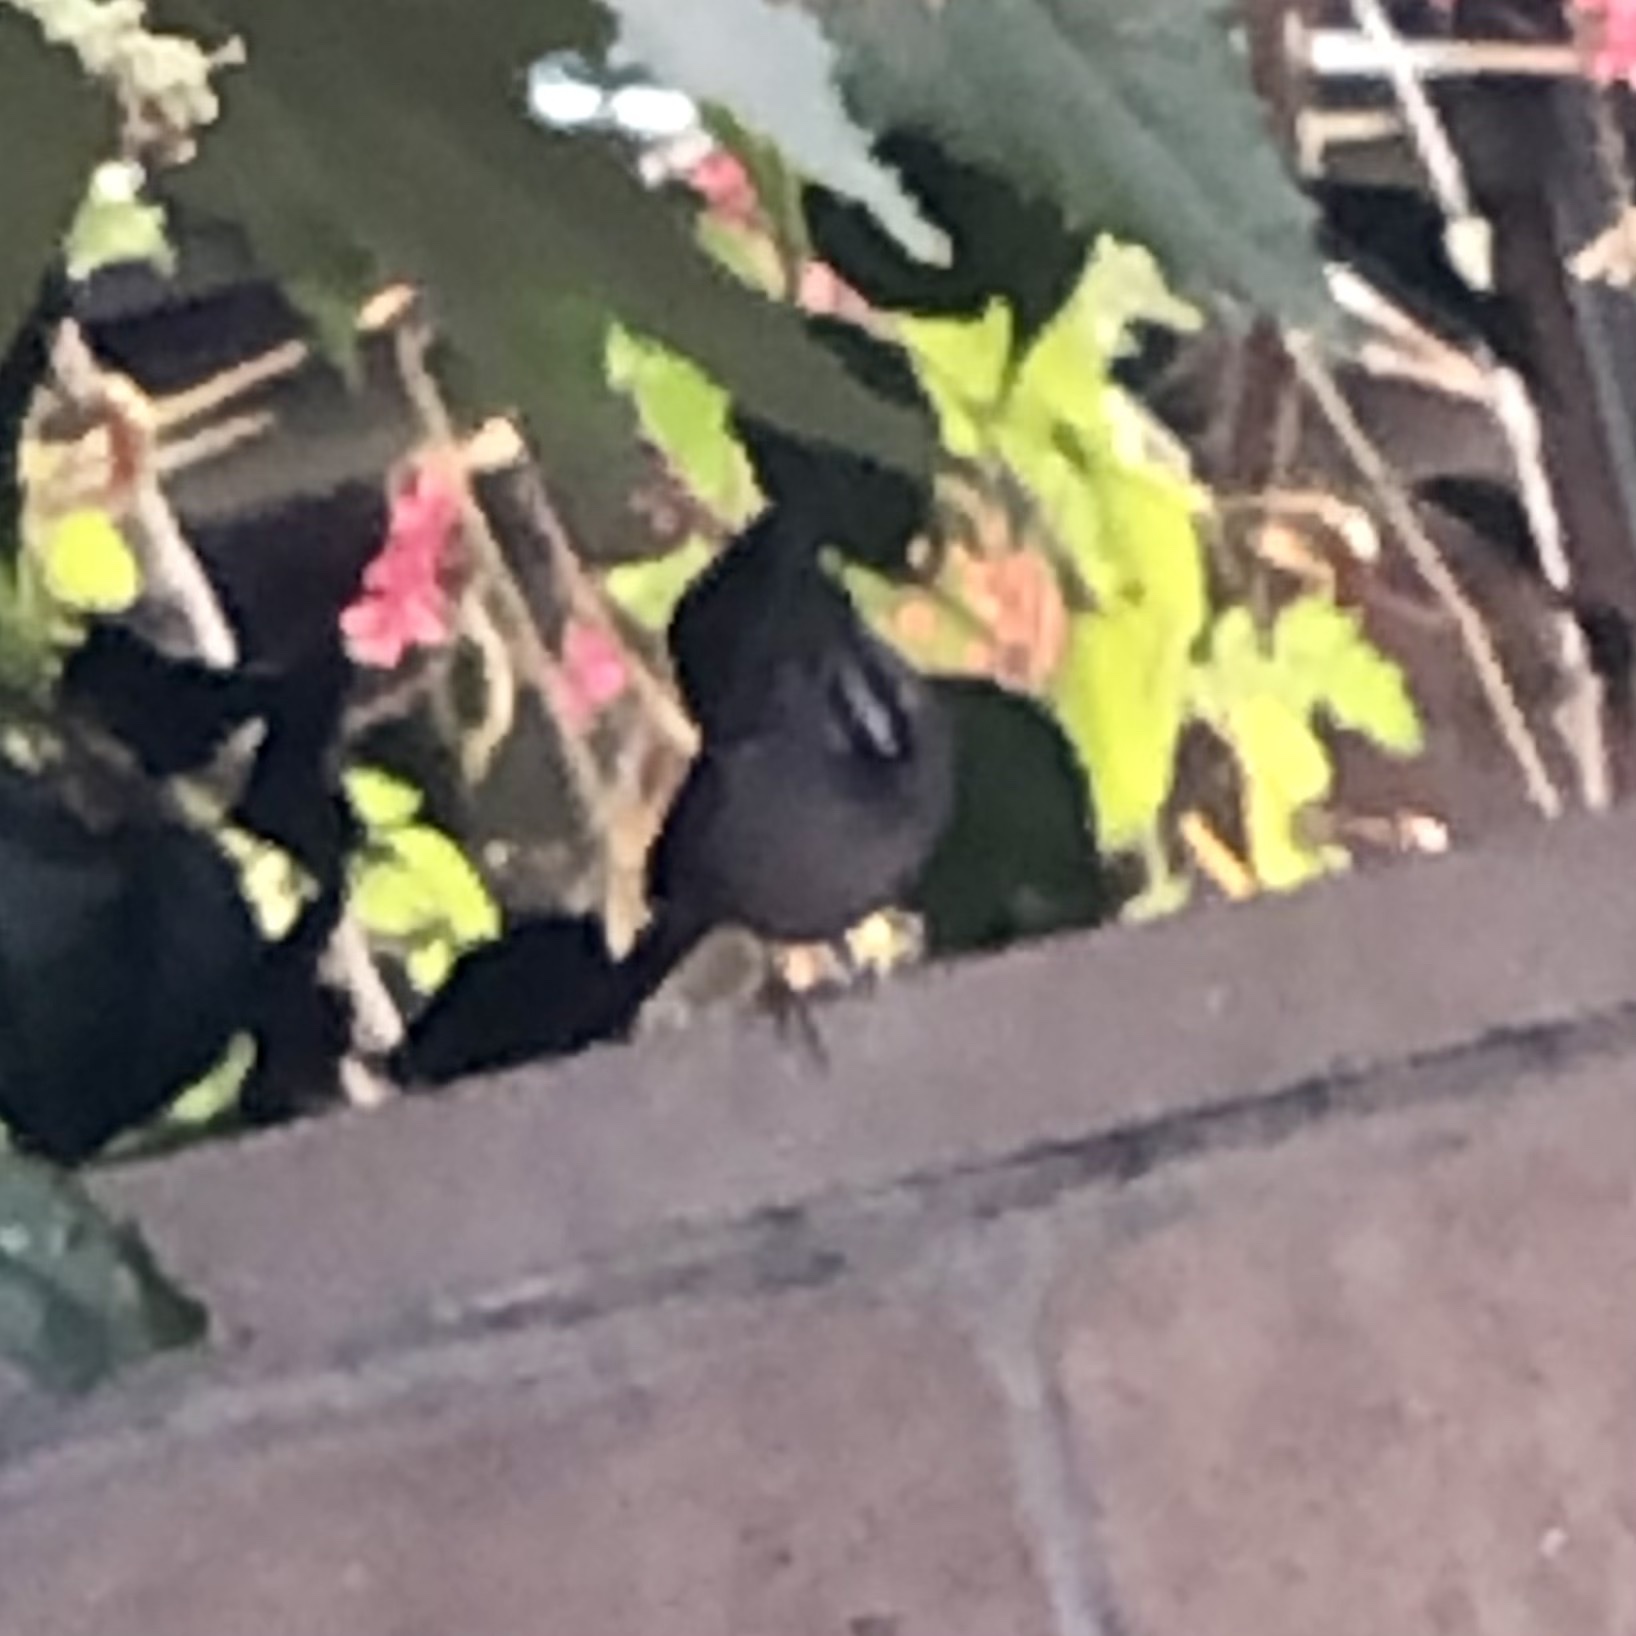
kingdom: Animalia
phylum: Chordata
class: Aves
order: Passeriformes
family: Passerellidae
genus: Zonotrichia
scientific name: Zonotrichia leucophrys
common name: White-crowned sparrow
